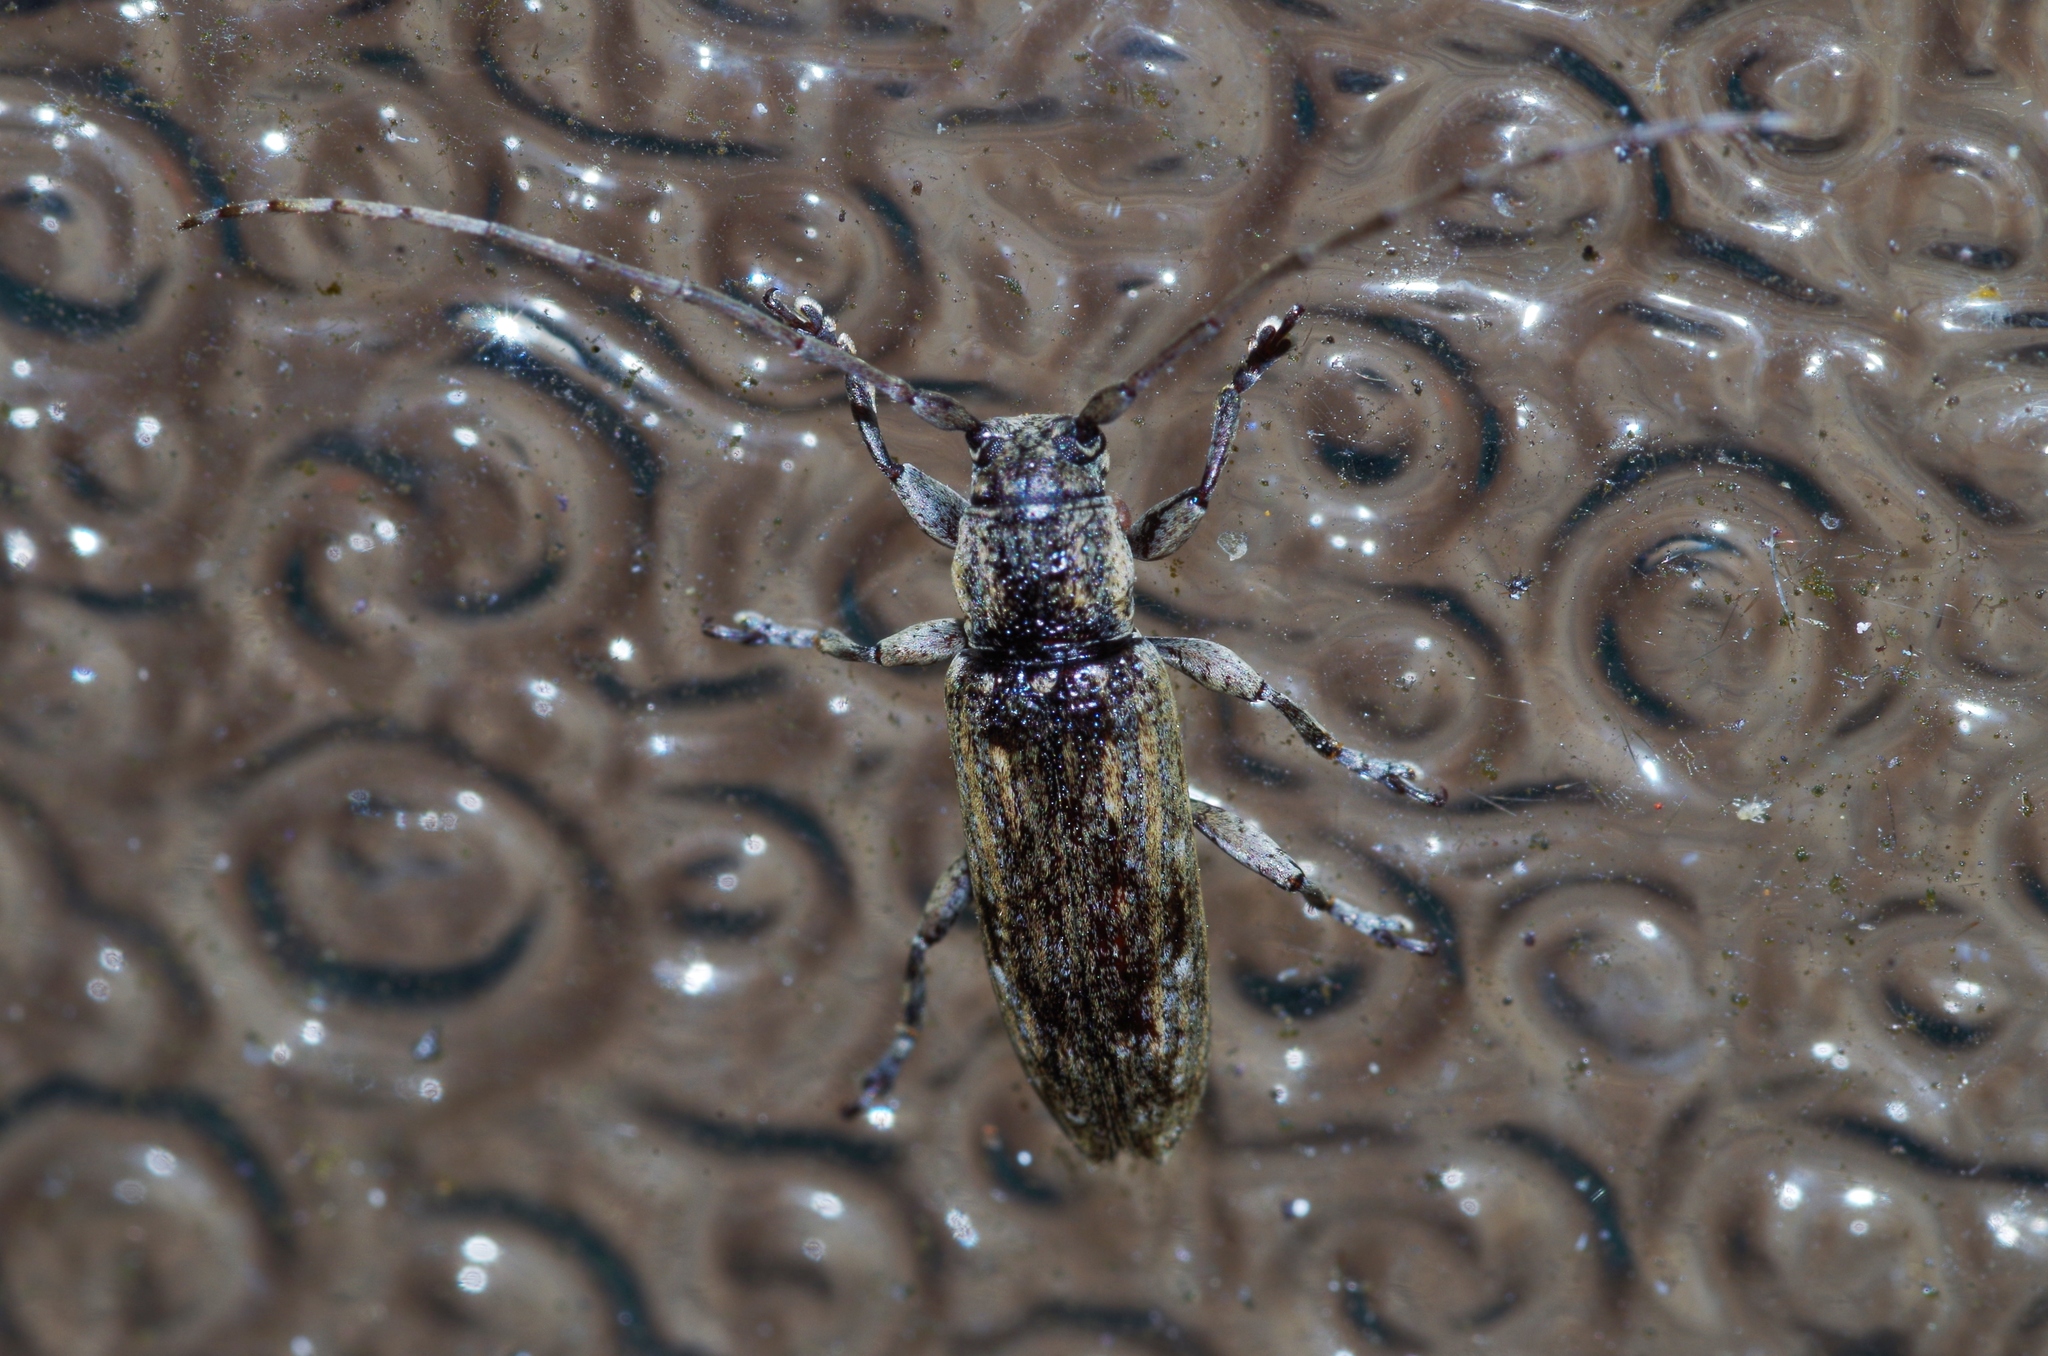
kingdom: Animalia
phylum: Arthropoda
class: Insecta
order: Coleoptera
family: Cerambycidae
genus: Mycerinopsis
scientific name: Mycerinopsis ordinata
